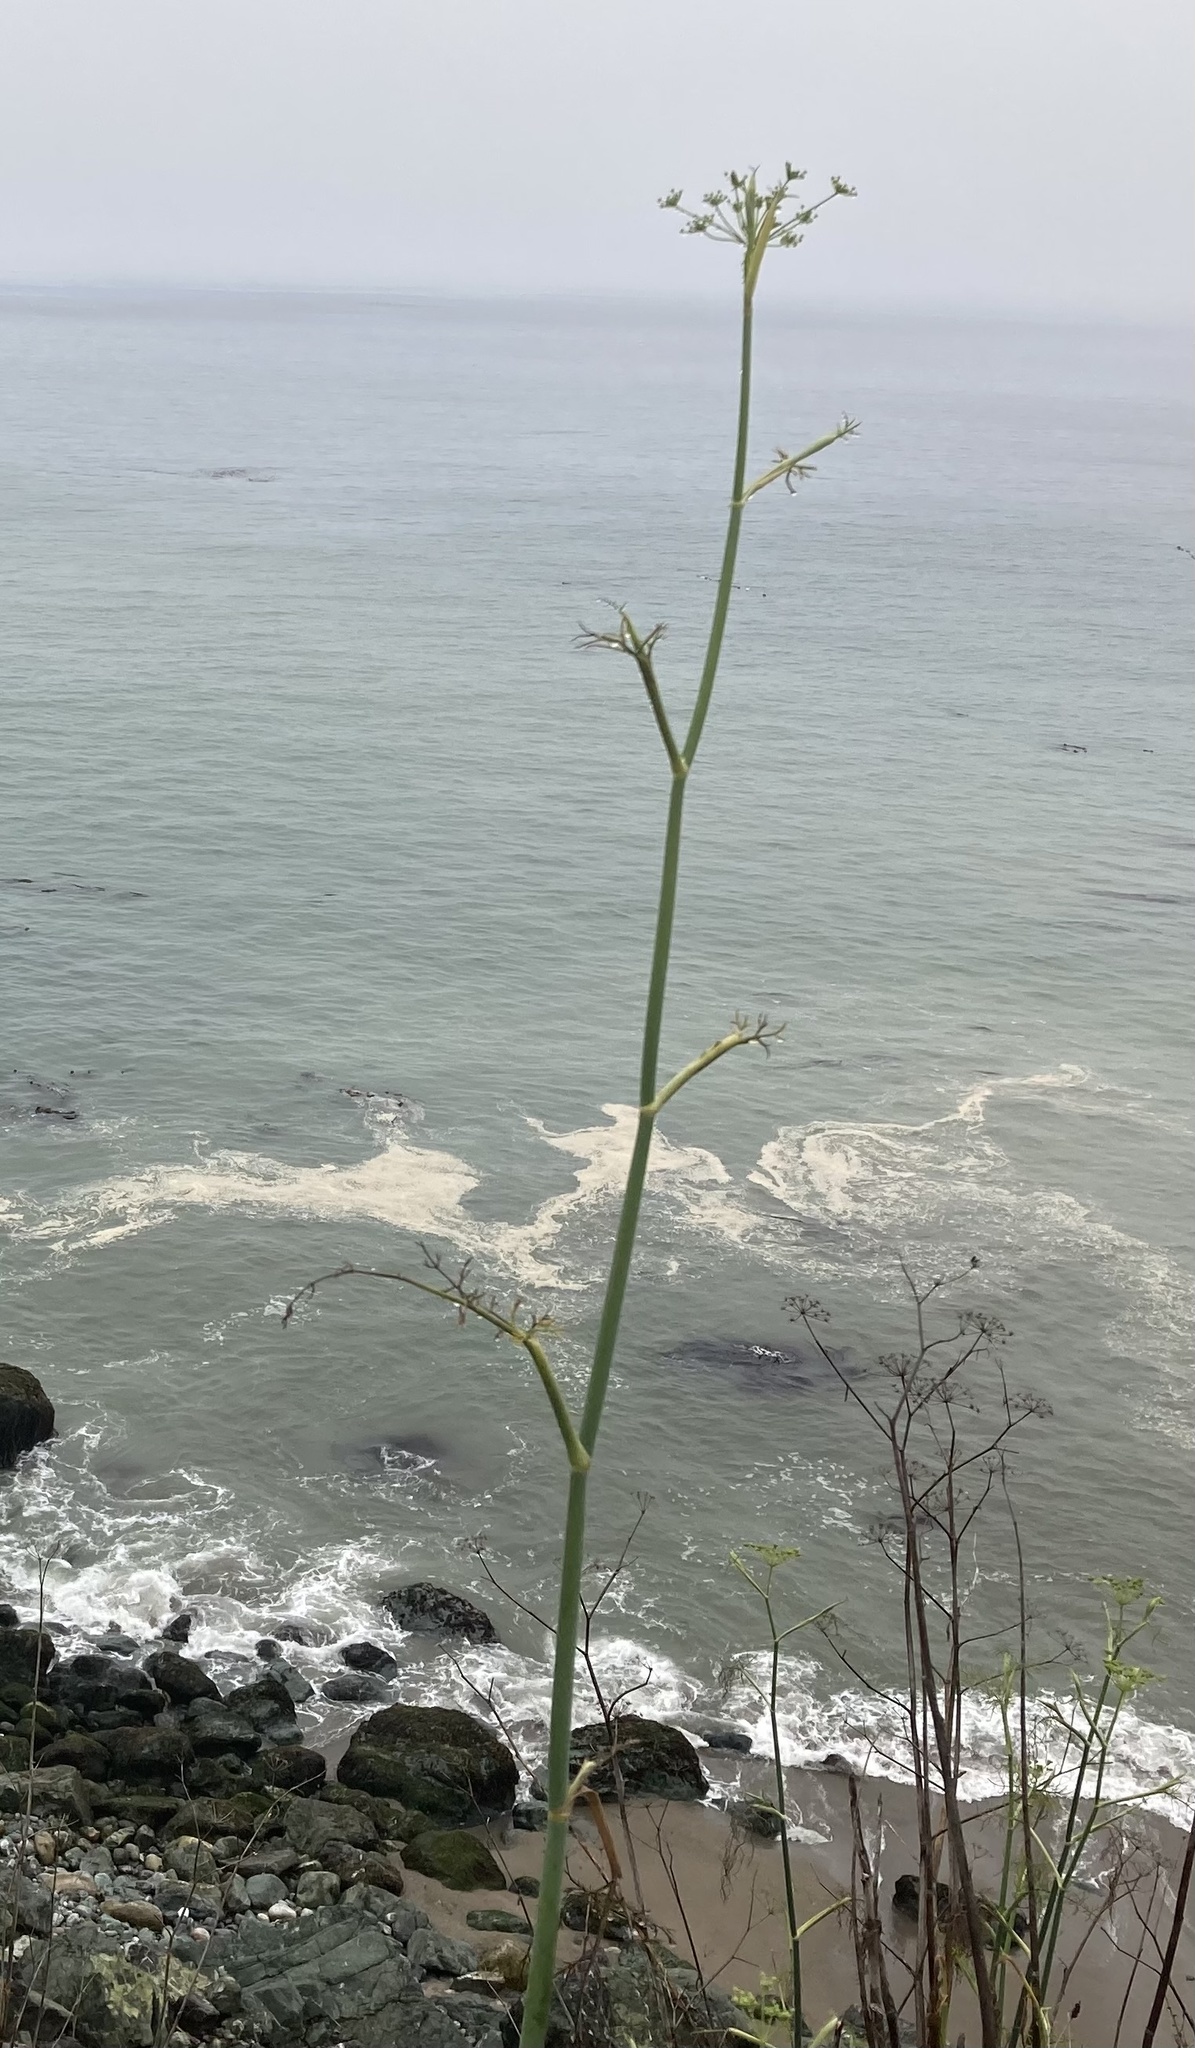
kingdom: Plantae
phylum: Tracheophyta
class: Magnoliopsida
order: Apiales
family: Apiaceae
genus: Foeniculum
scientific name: Foeniculum vulgare
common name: Fennel
